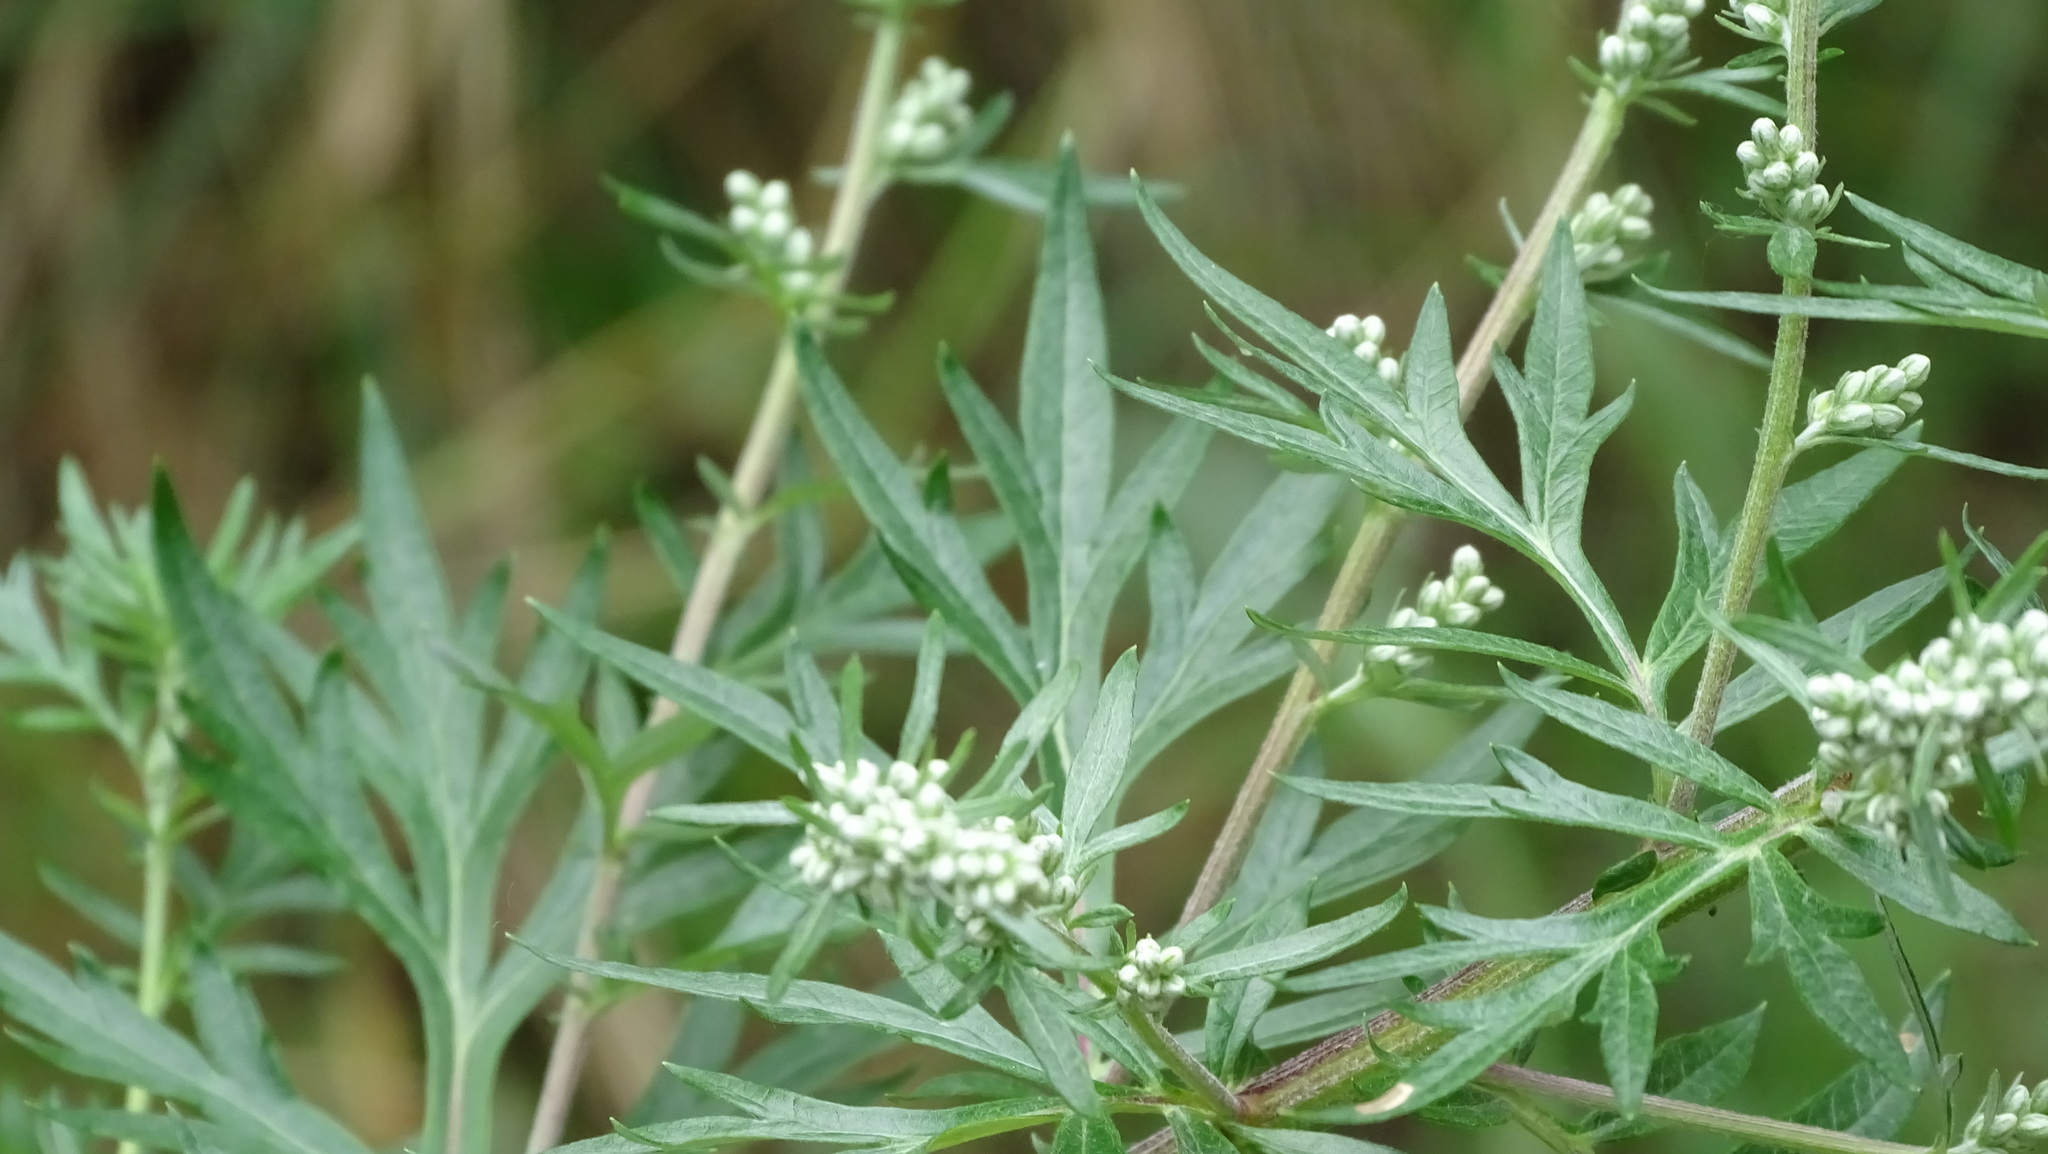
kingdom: Plantae
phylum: Tracheophyta
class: Magnoliopsida
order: Asterales
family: Asteraceae
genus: Artemisia
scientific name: Artemisia vulgaris
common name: Mugwort
